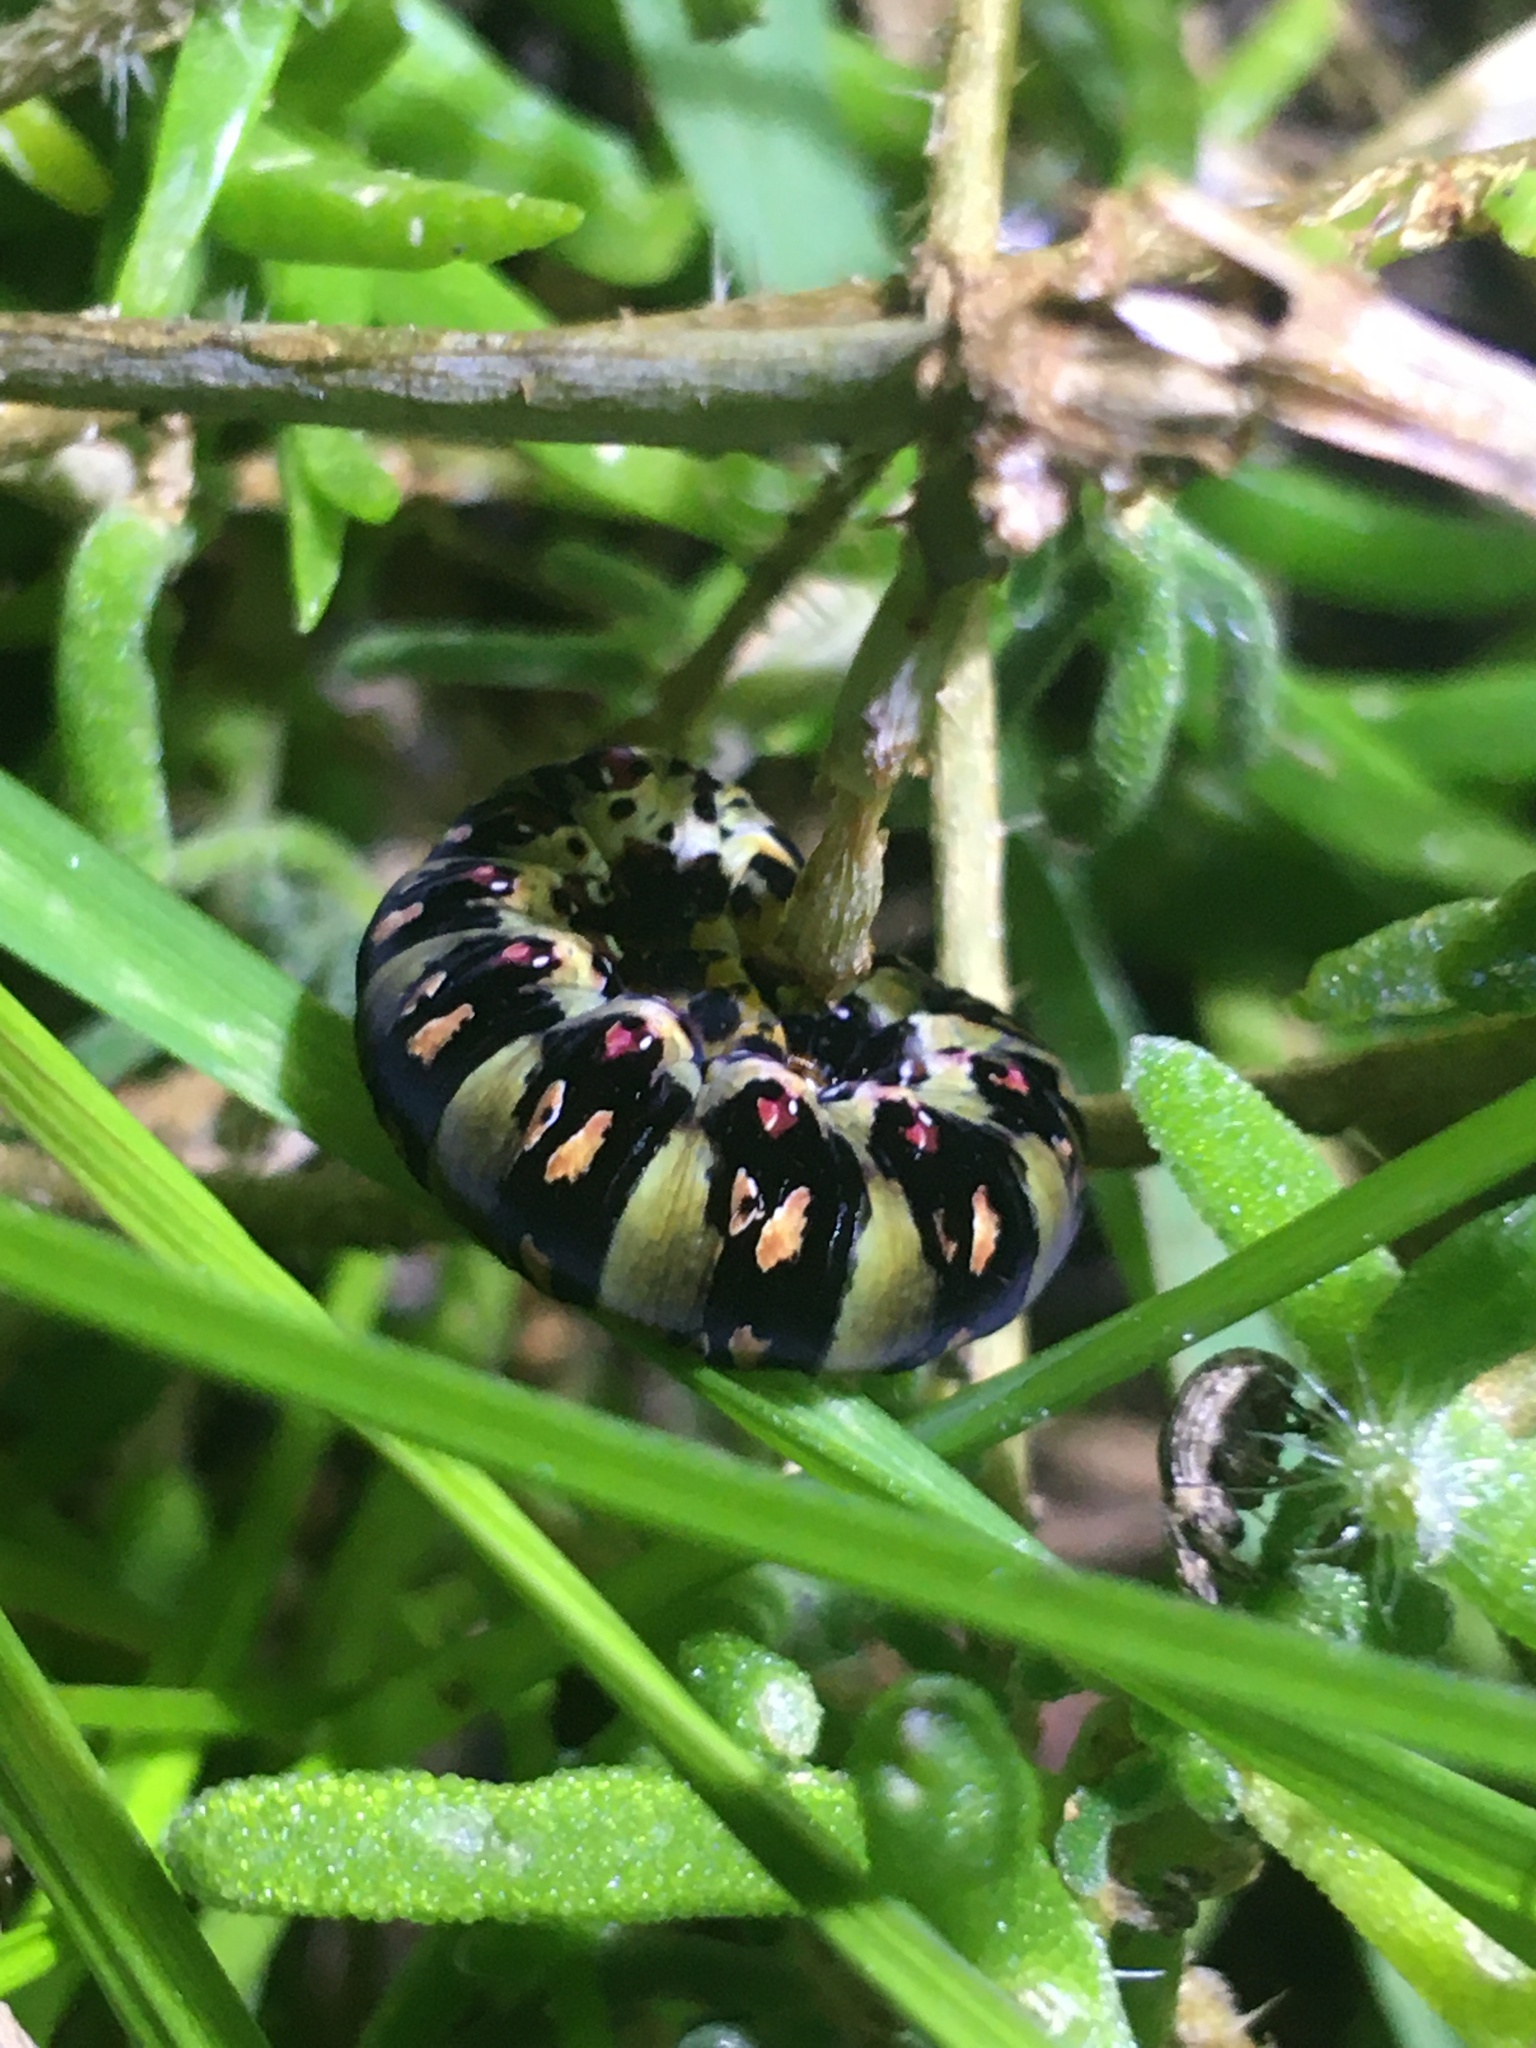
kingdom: Animalia
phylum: Arthropoda
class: Insecta
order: Lepidoptera
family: Noctuidae
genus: Klugeana
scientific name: Klugeana philoxalis
